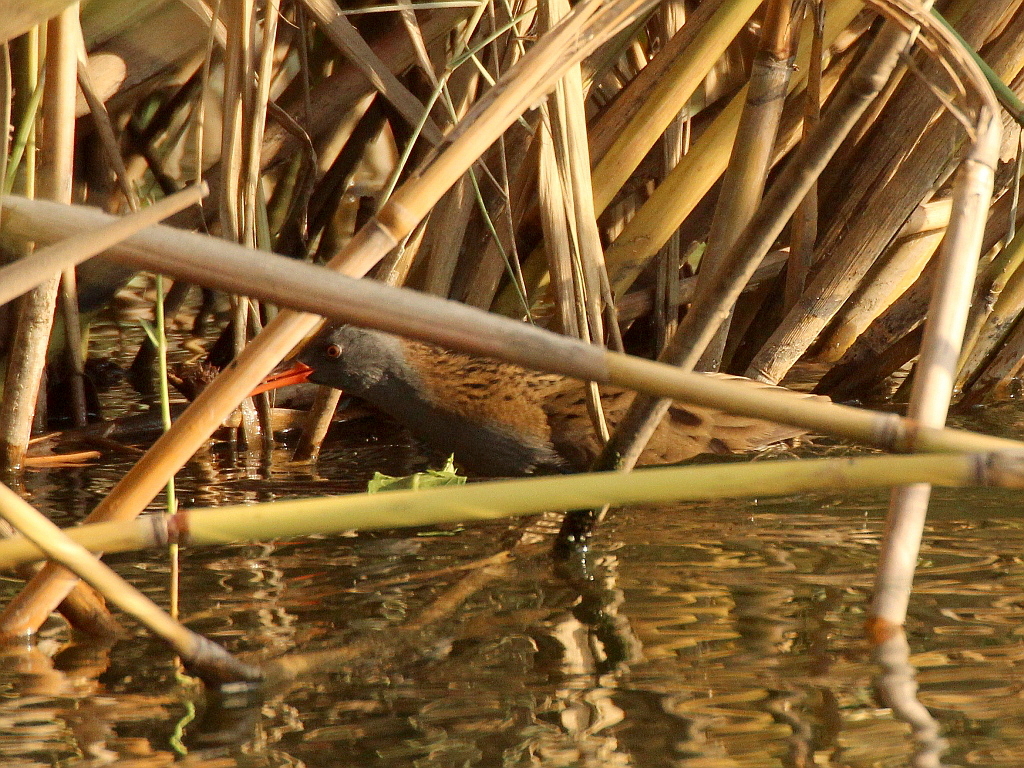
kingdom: Animalia
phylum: Chordata
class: Aves
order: Gruiformes
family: Rallidae
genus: Rallus
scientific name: Rallus aquaticus
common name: Water rail
